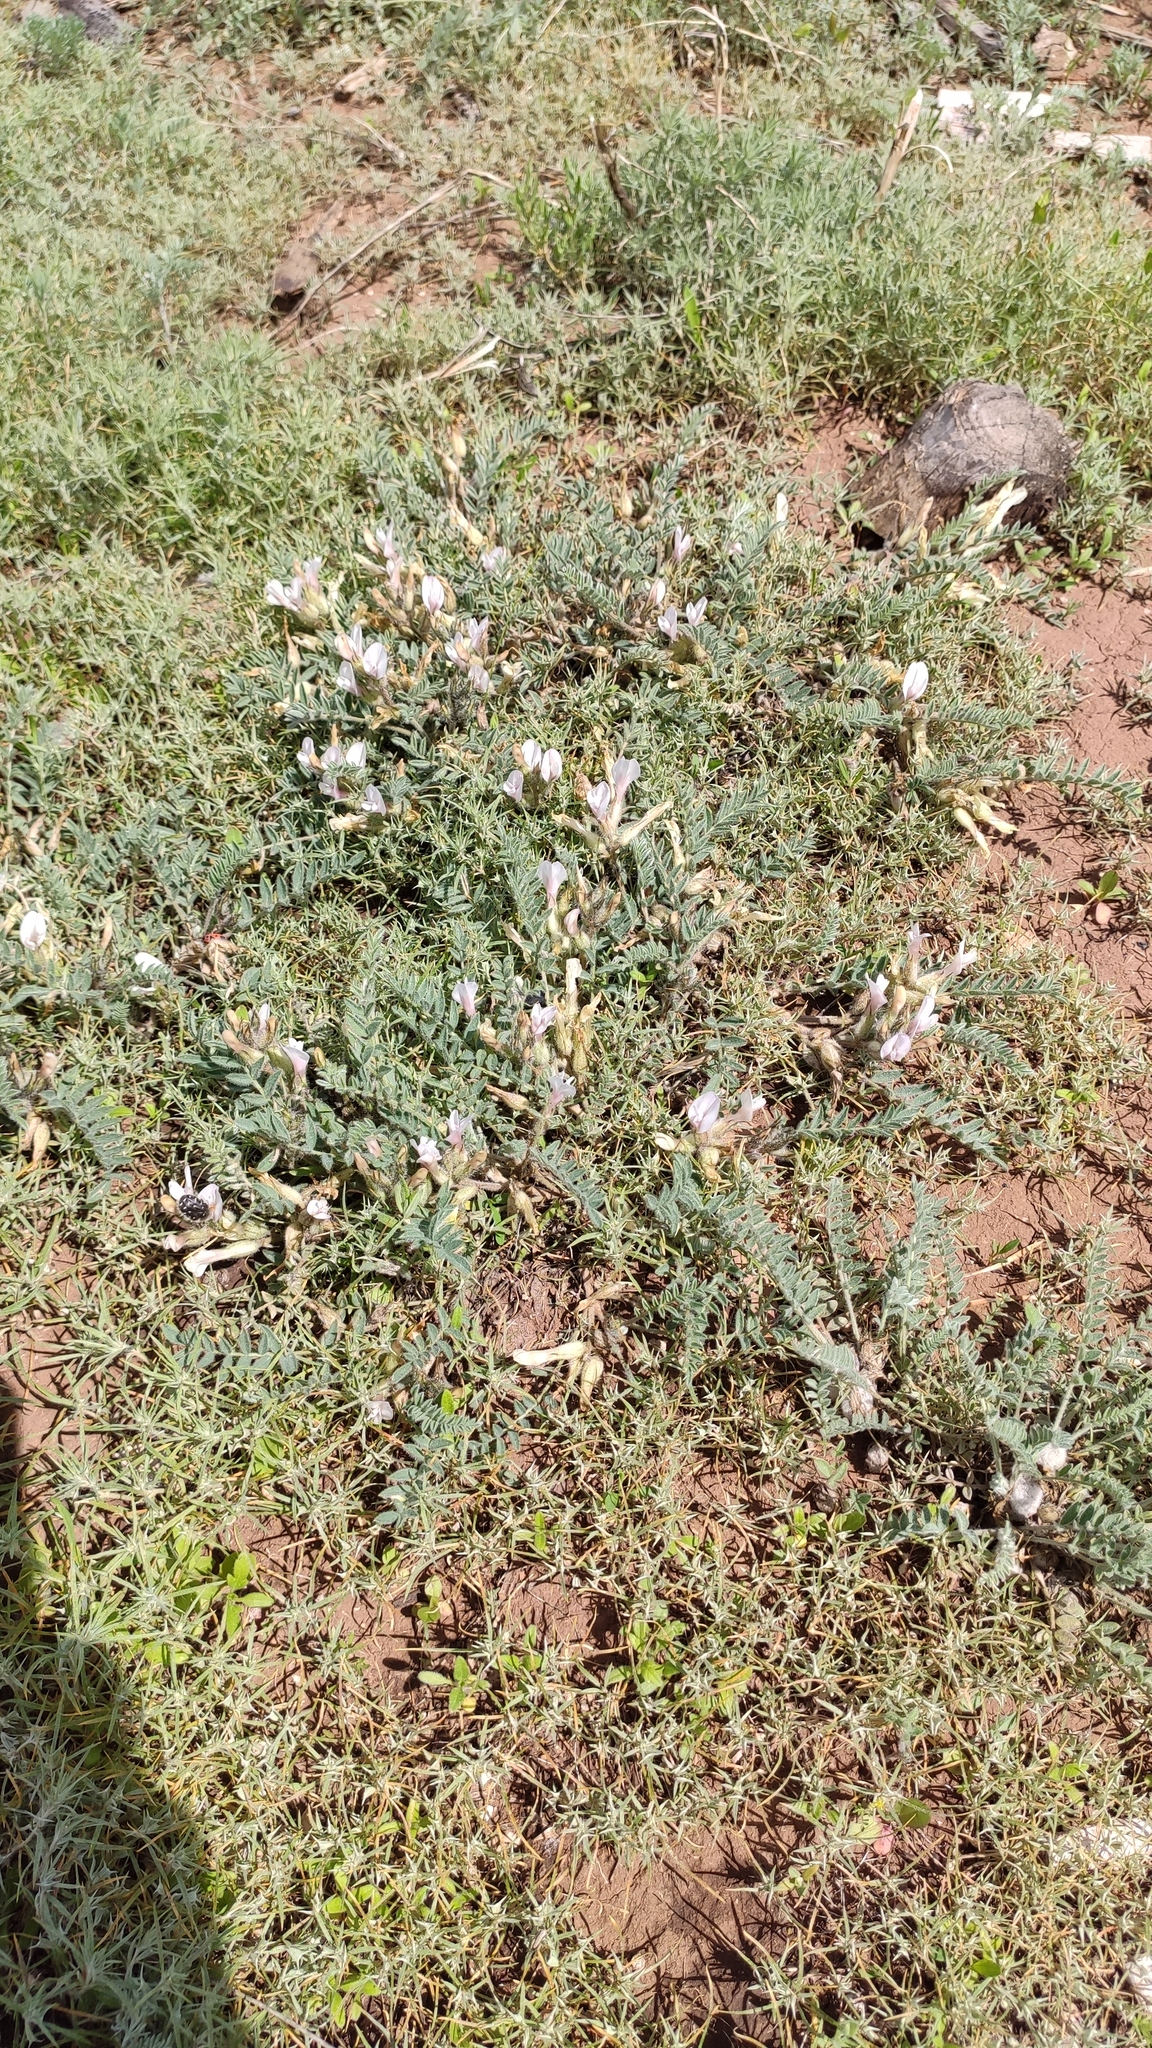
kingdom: Plantae
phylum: Tracheophyta
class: Magnoliopsida
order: Fabales
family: Fabaceae
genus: Astragalus
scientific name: Astragalus testiculatus
